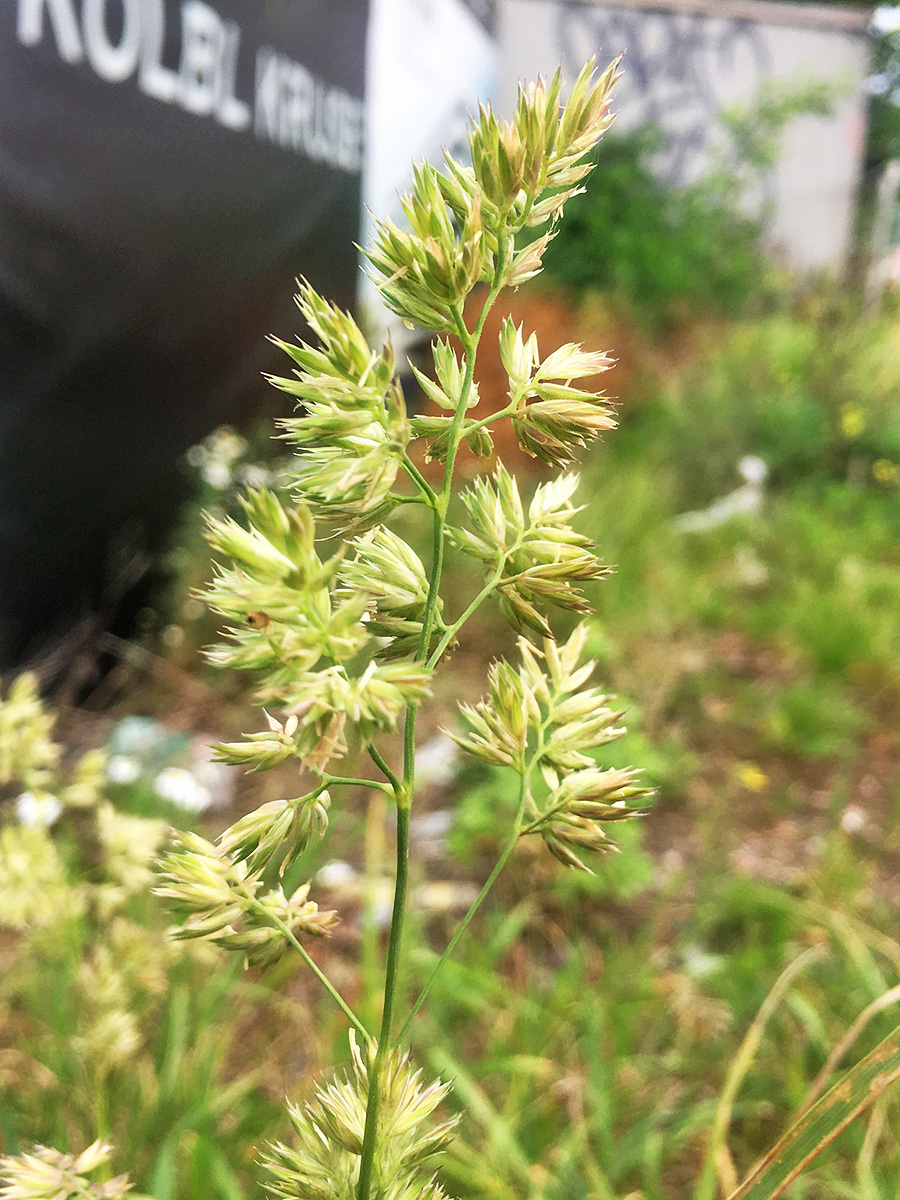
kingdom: Plantae
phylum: Tracheophyta
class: Liliopsida
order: Poales
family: Poaceae
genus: Dactylis
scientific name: Dactylis glomerata
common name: Orchardgrass
